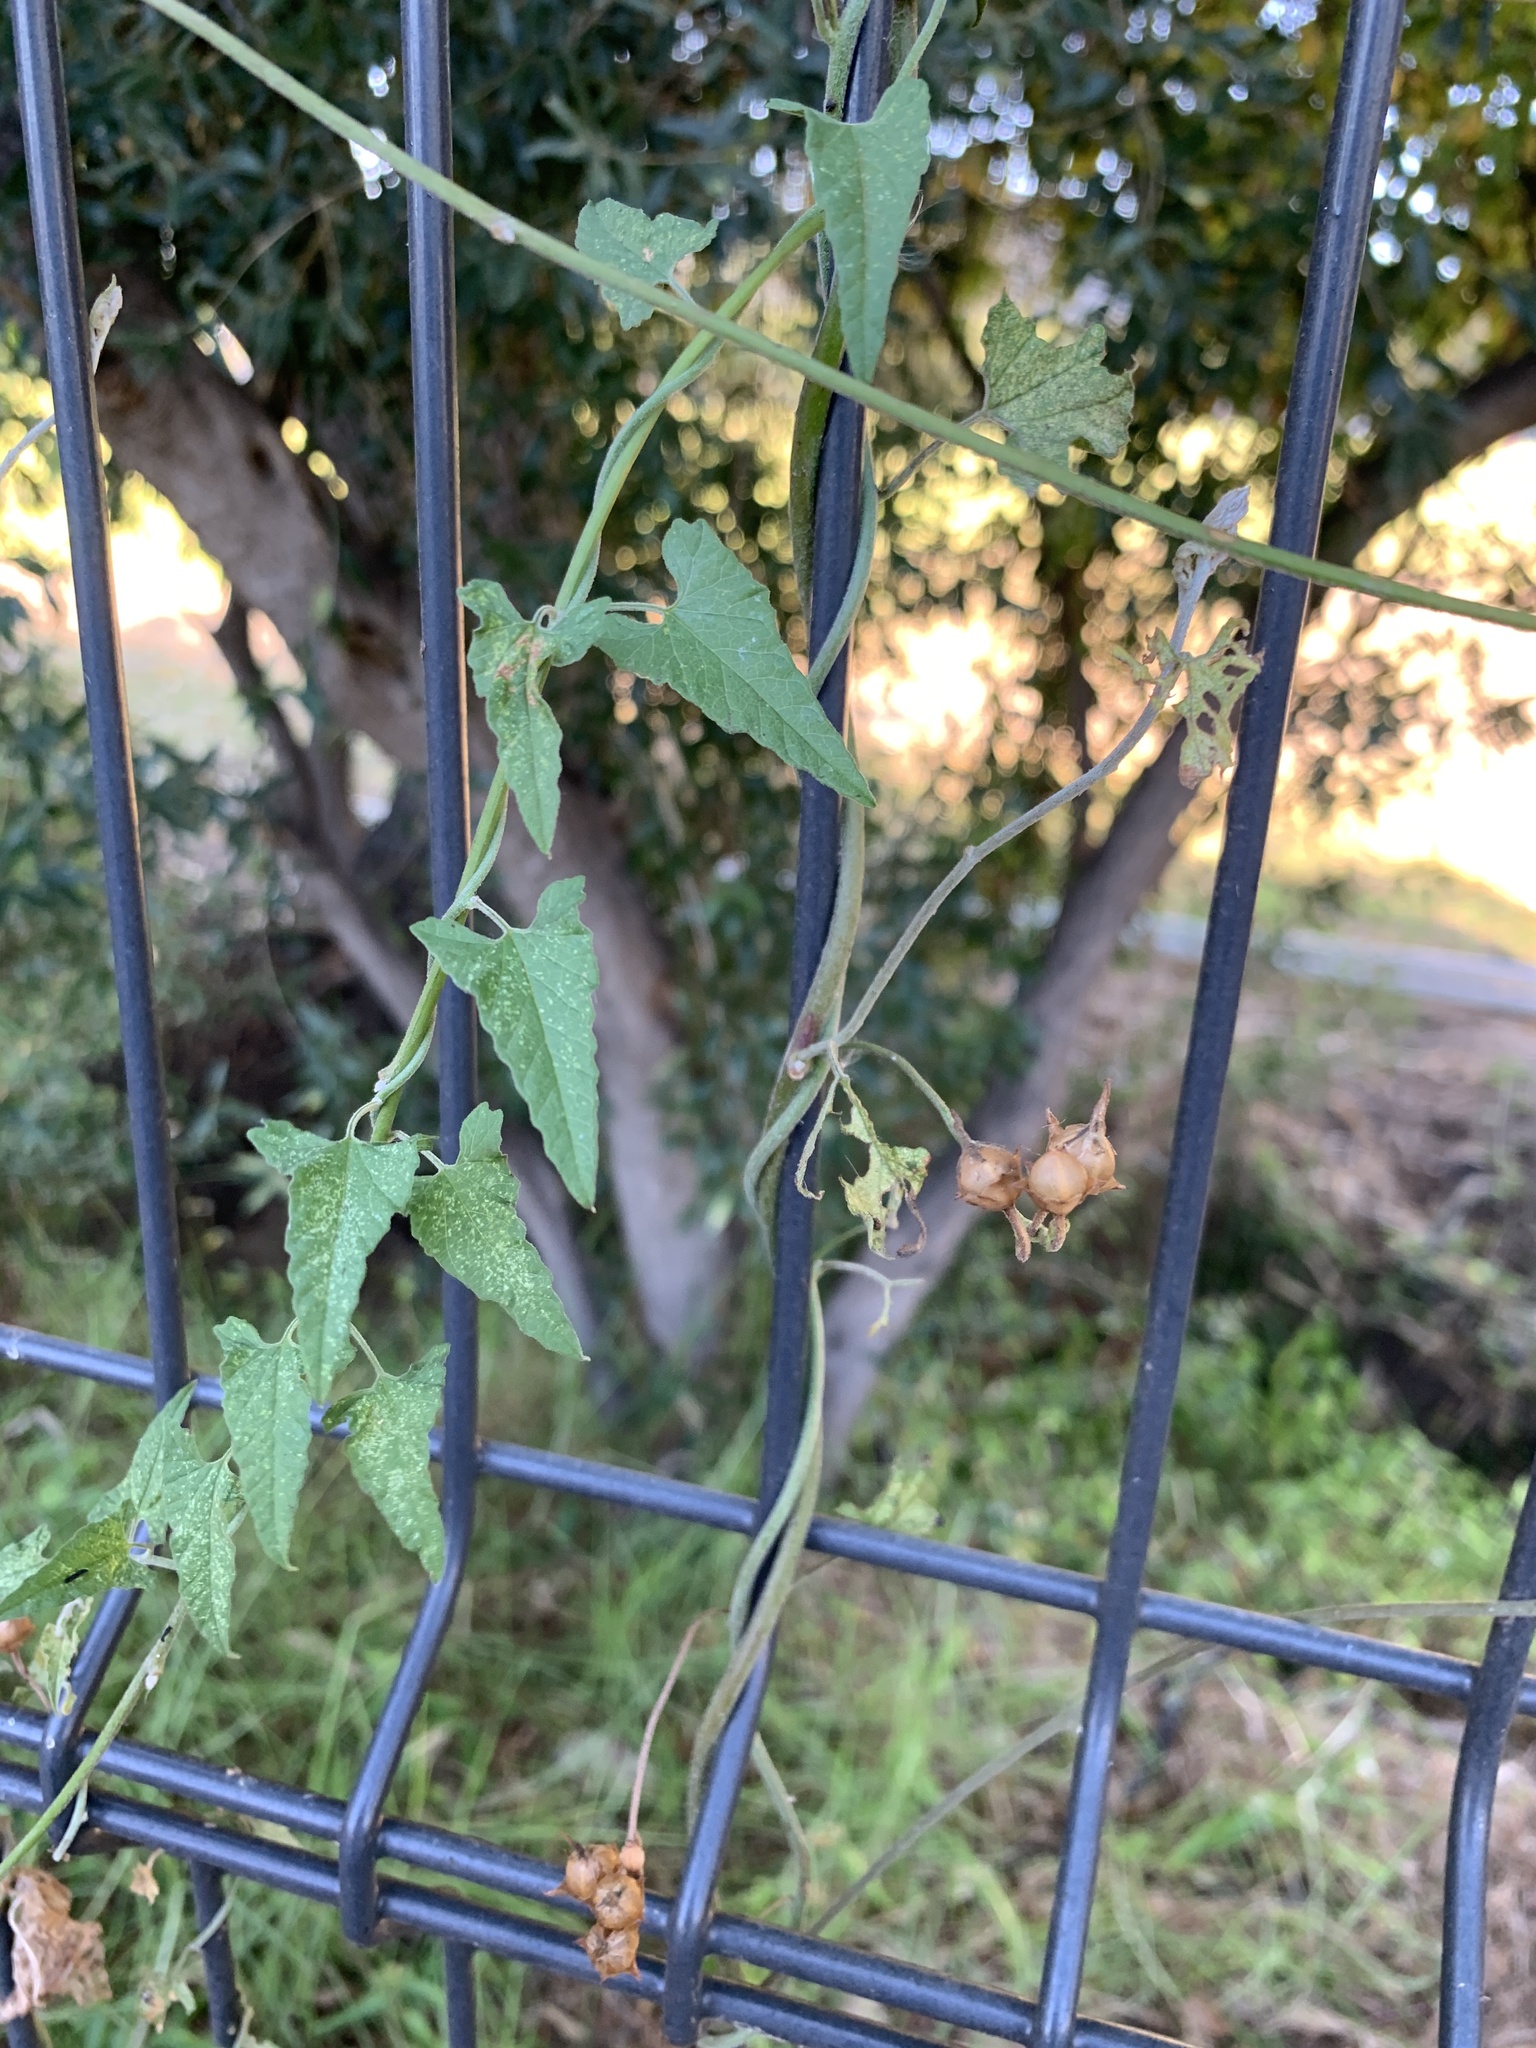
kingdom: Plantae
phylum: Tracheophyta
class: Magnoliopsida
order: Solanales
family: Convolvulaceae
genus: Convolvulus
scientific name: Convolvulus farinosus
